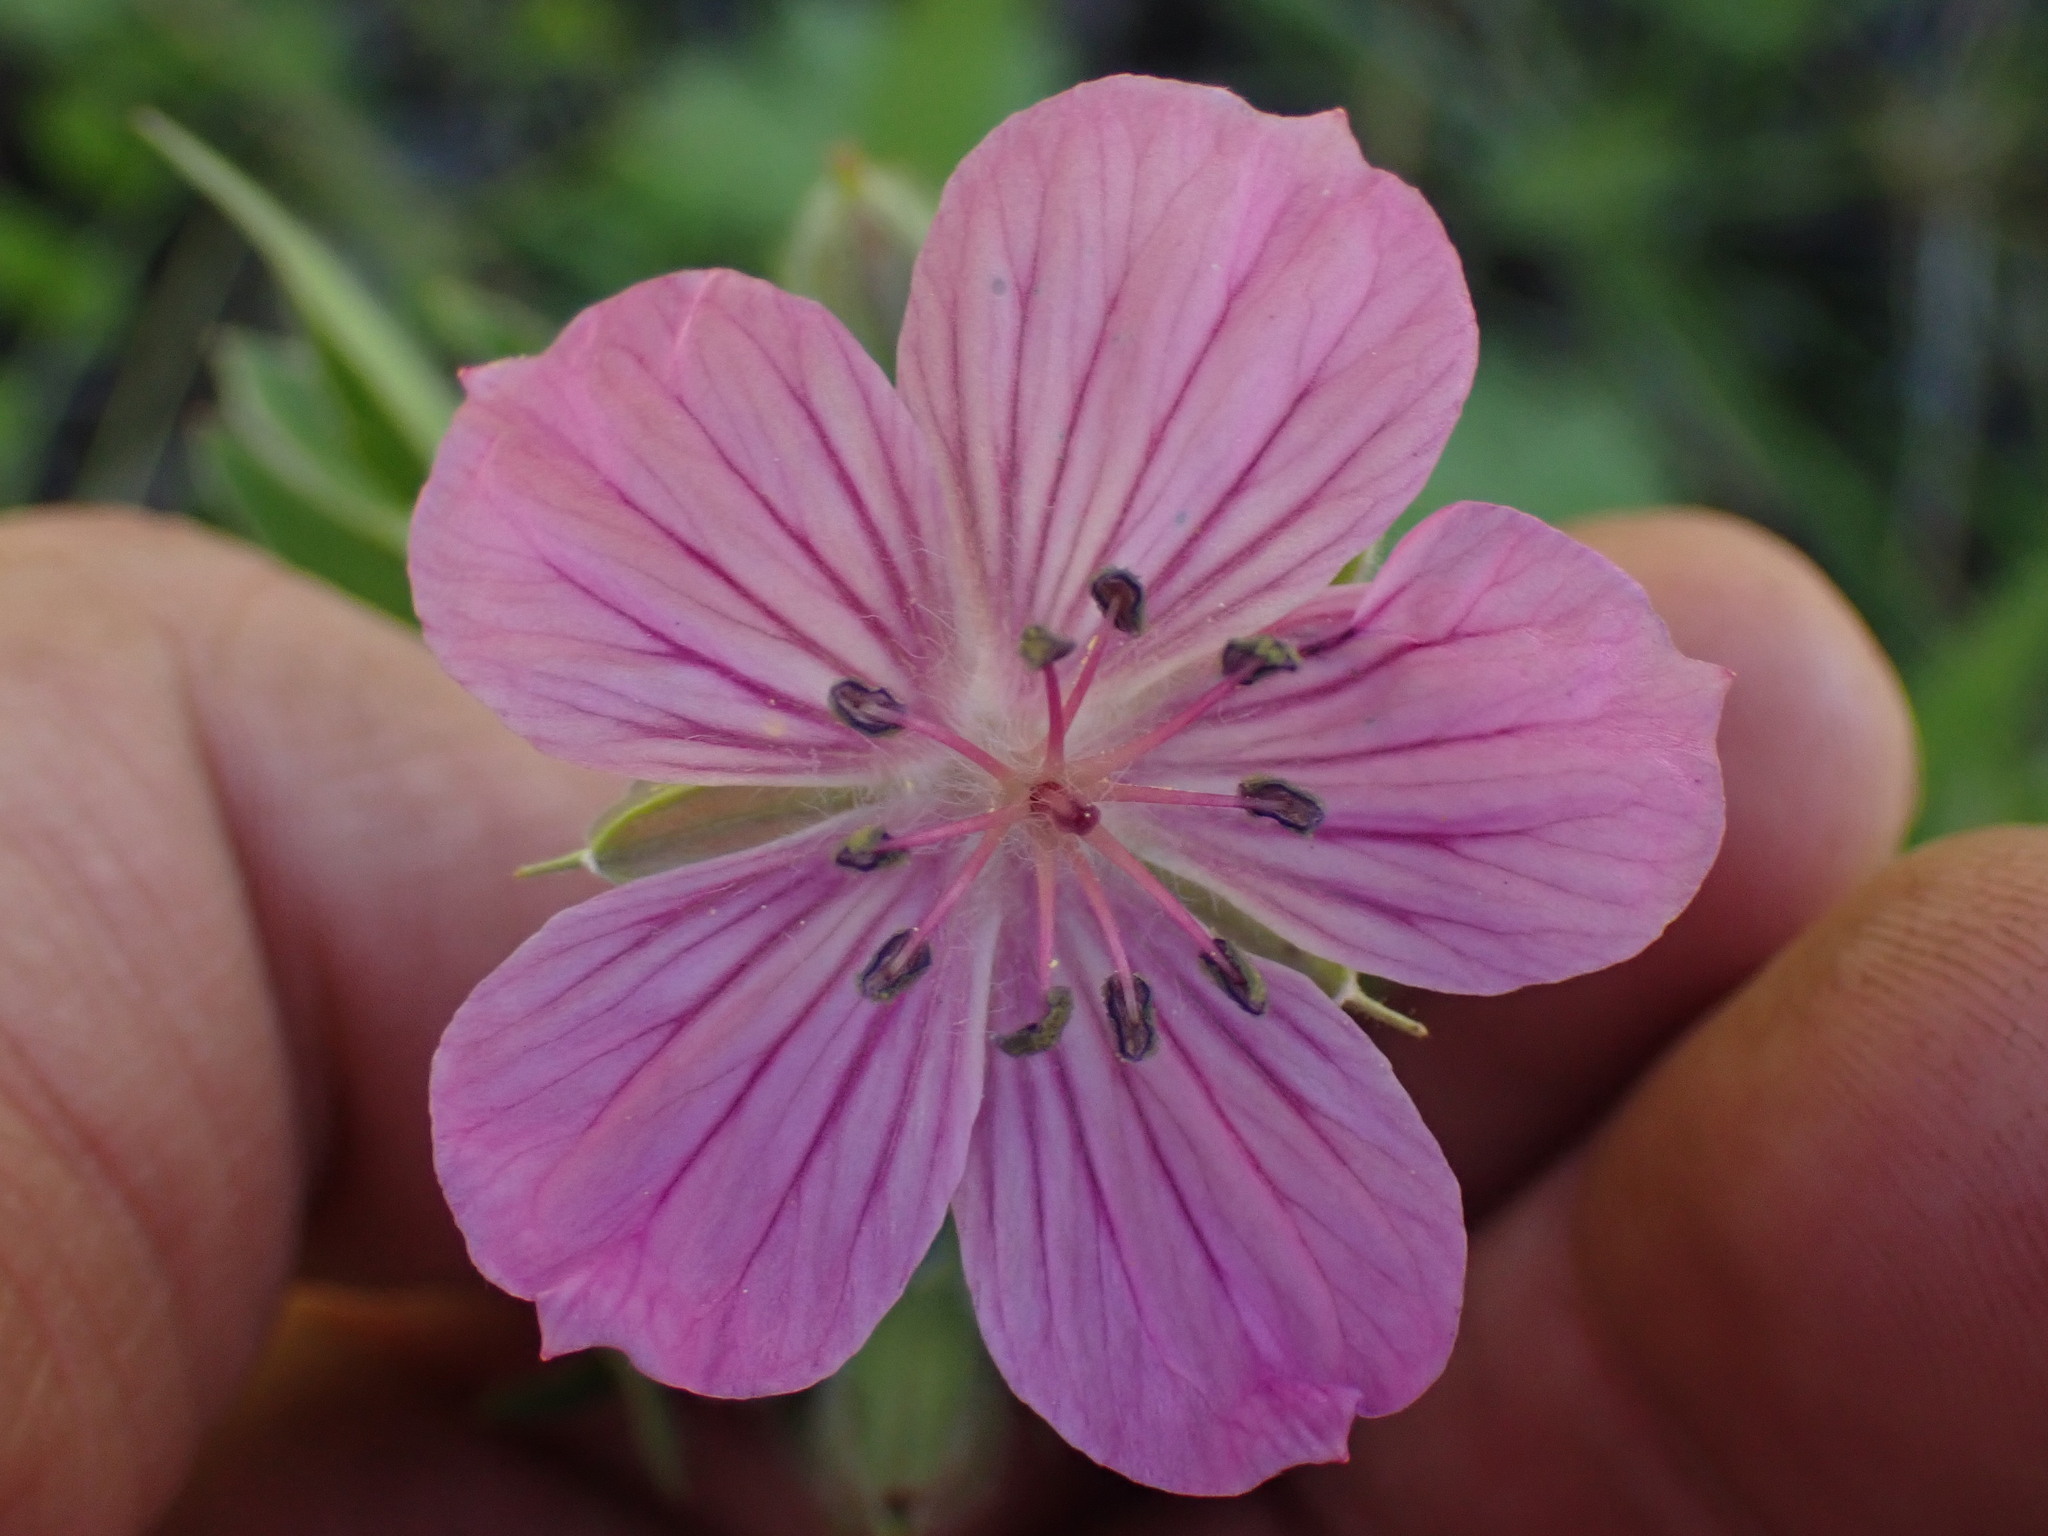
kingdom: Plantae
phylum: Tracheophyta
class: Magnoliopsida
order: Geraniales
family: Geraniaceae
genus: Geranium
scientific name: Geranium viscosissimum
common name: Purple geranium
